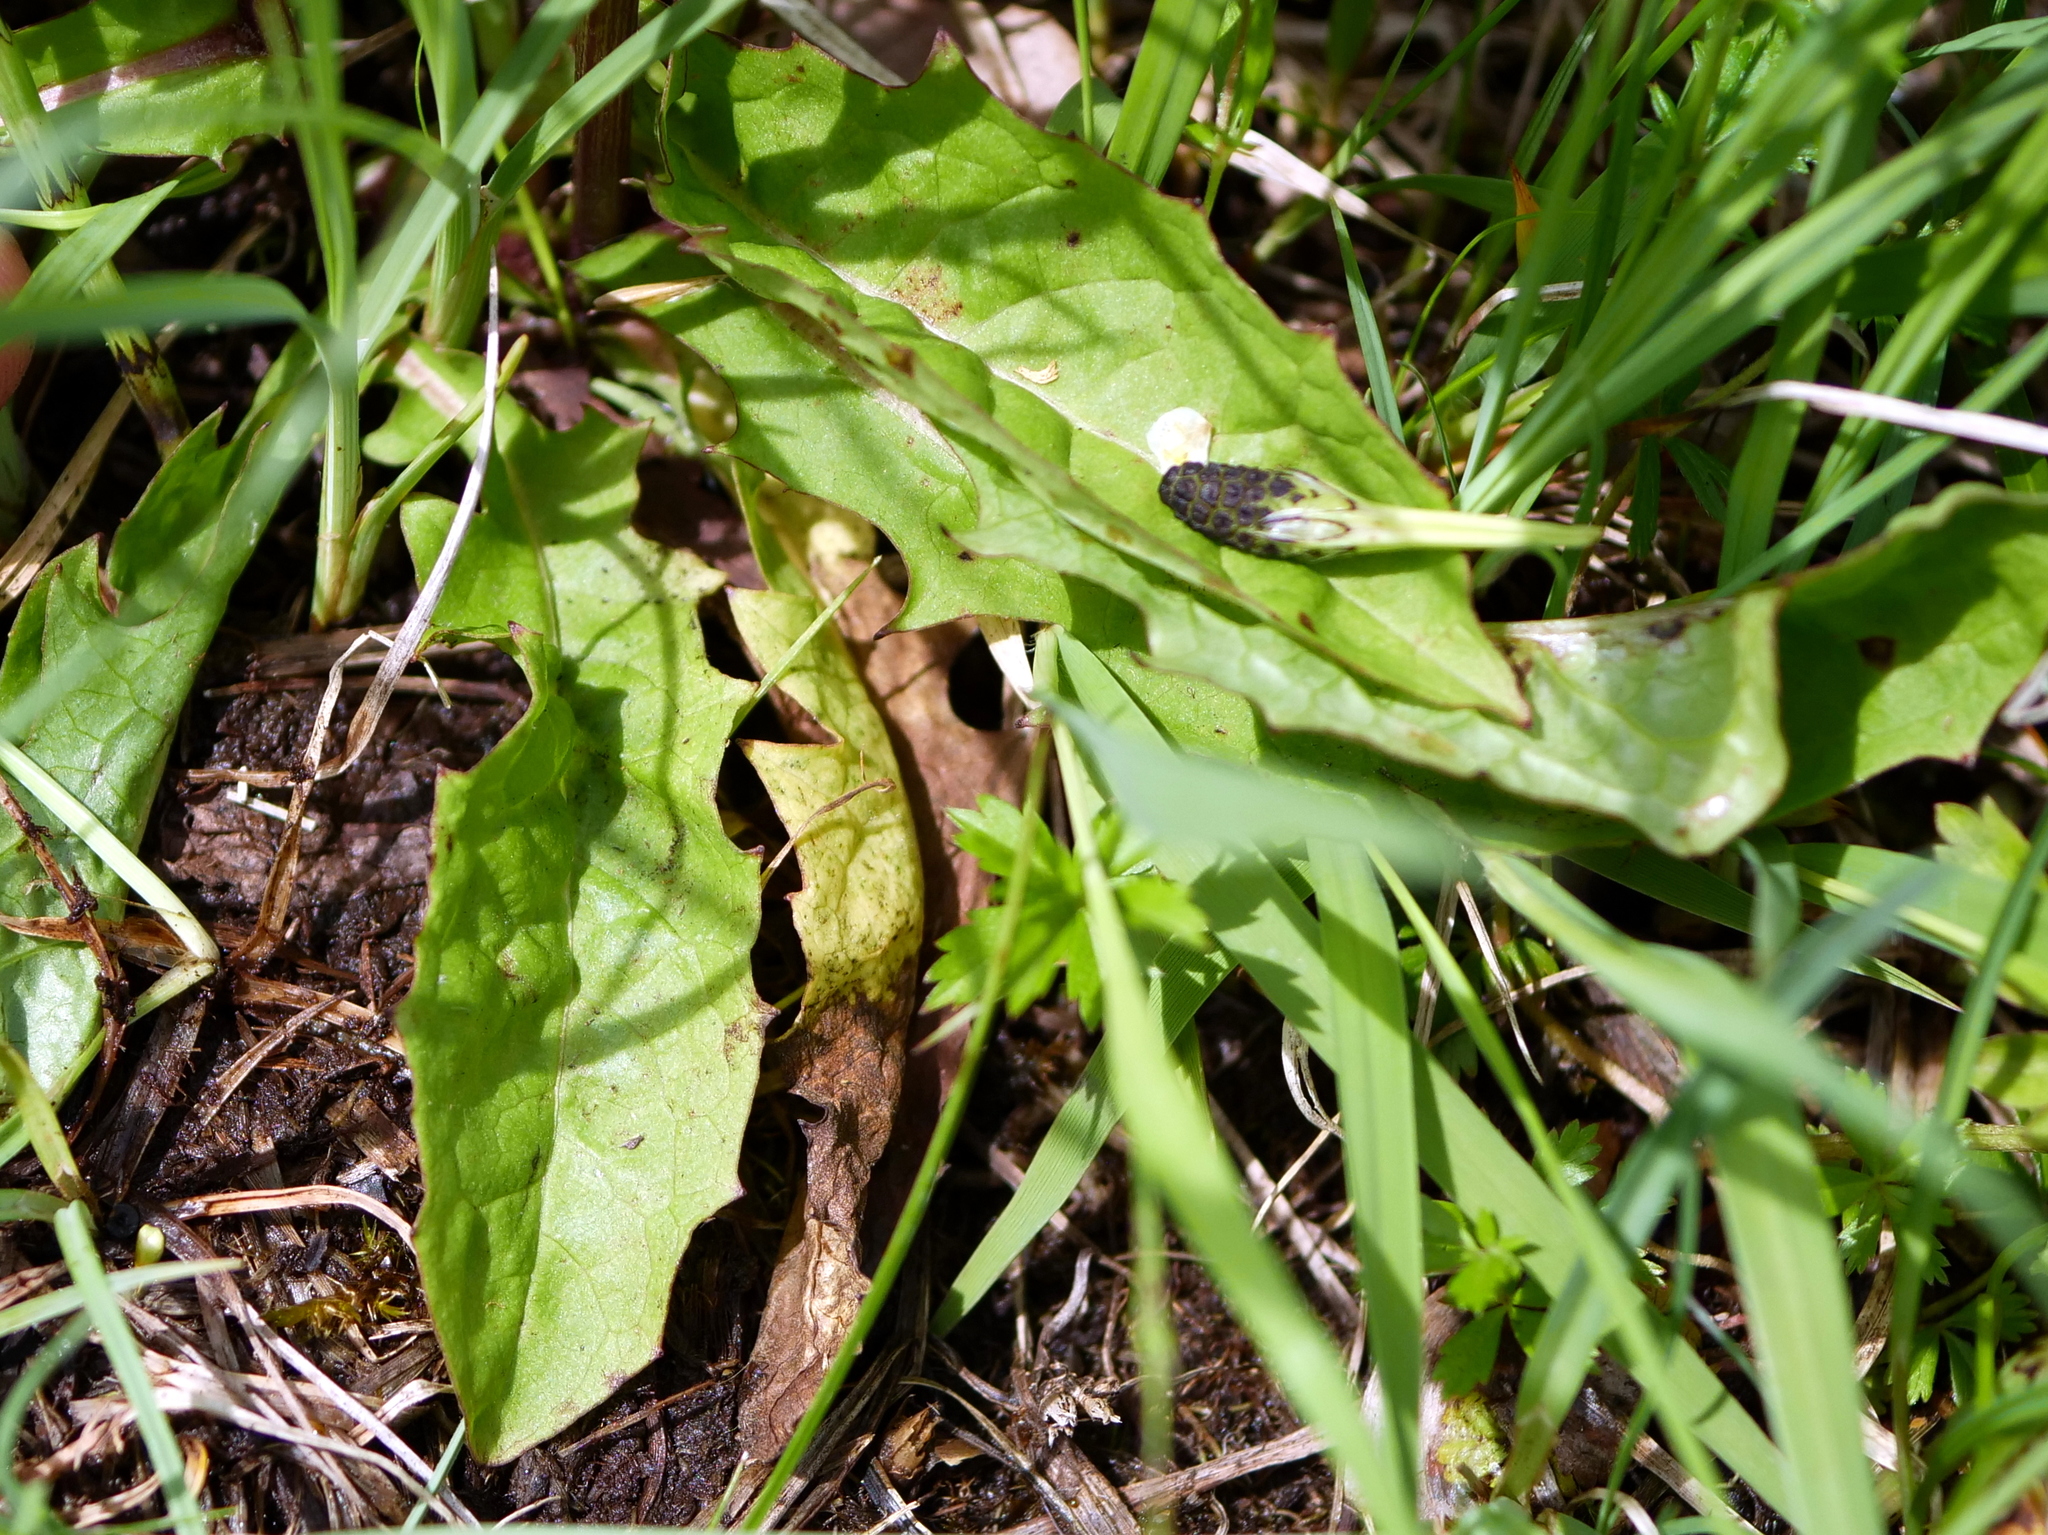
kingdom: Plantae
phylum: Tracheophyta
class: Magnoliopsida
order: Asterales
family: Asteraceae
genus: Crepis
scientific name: Crepis paludosa
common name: Marsh hawk's-beard
